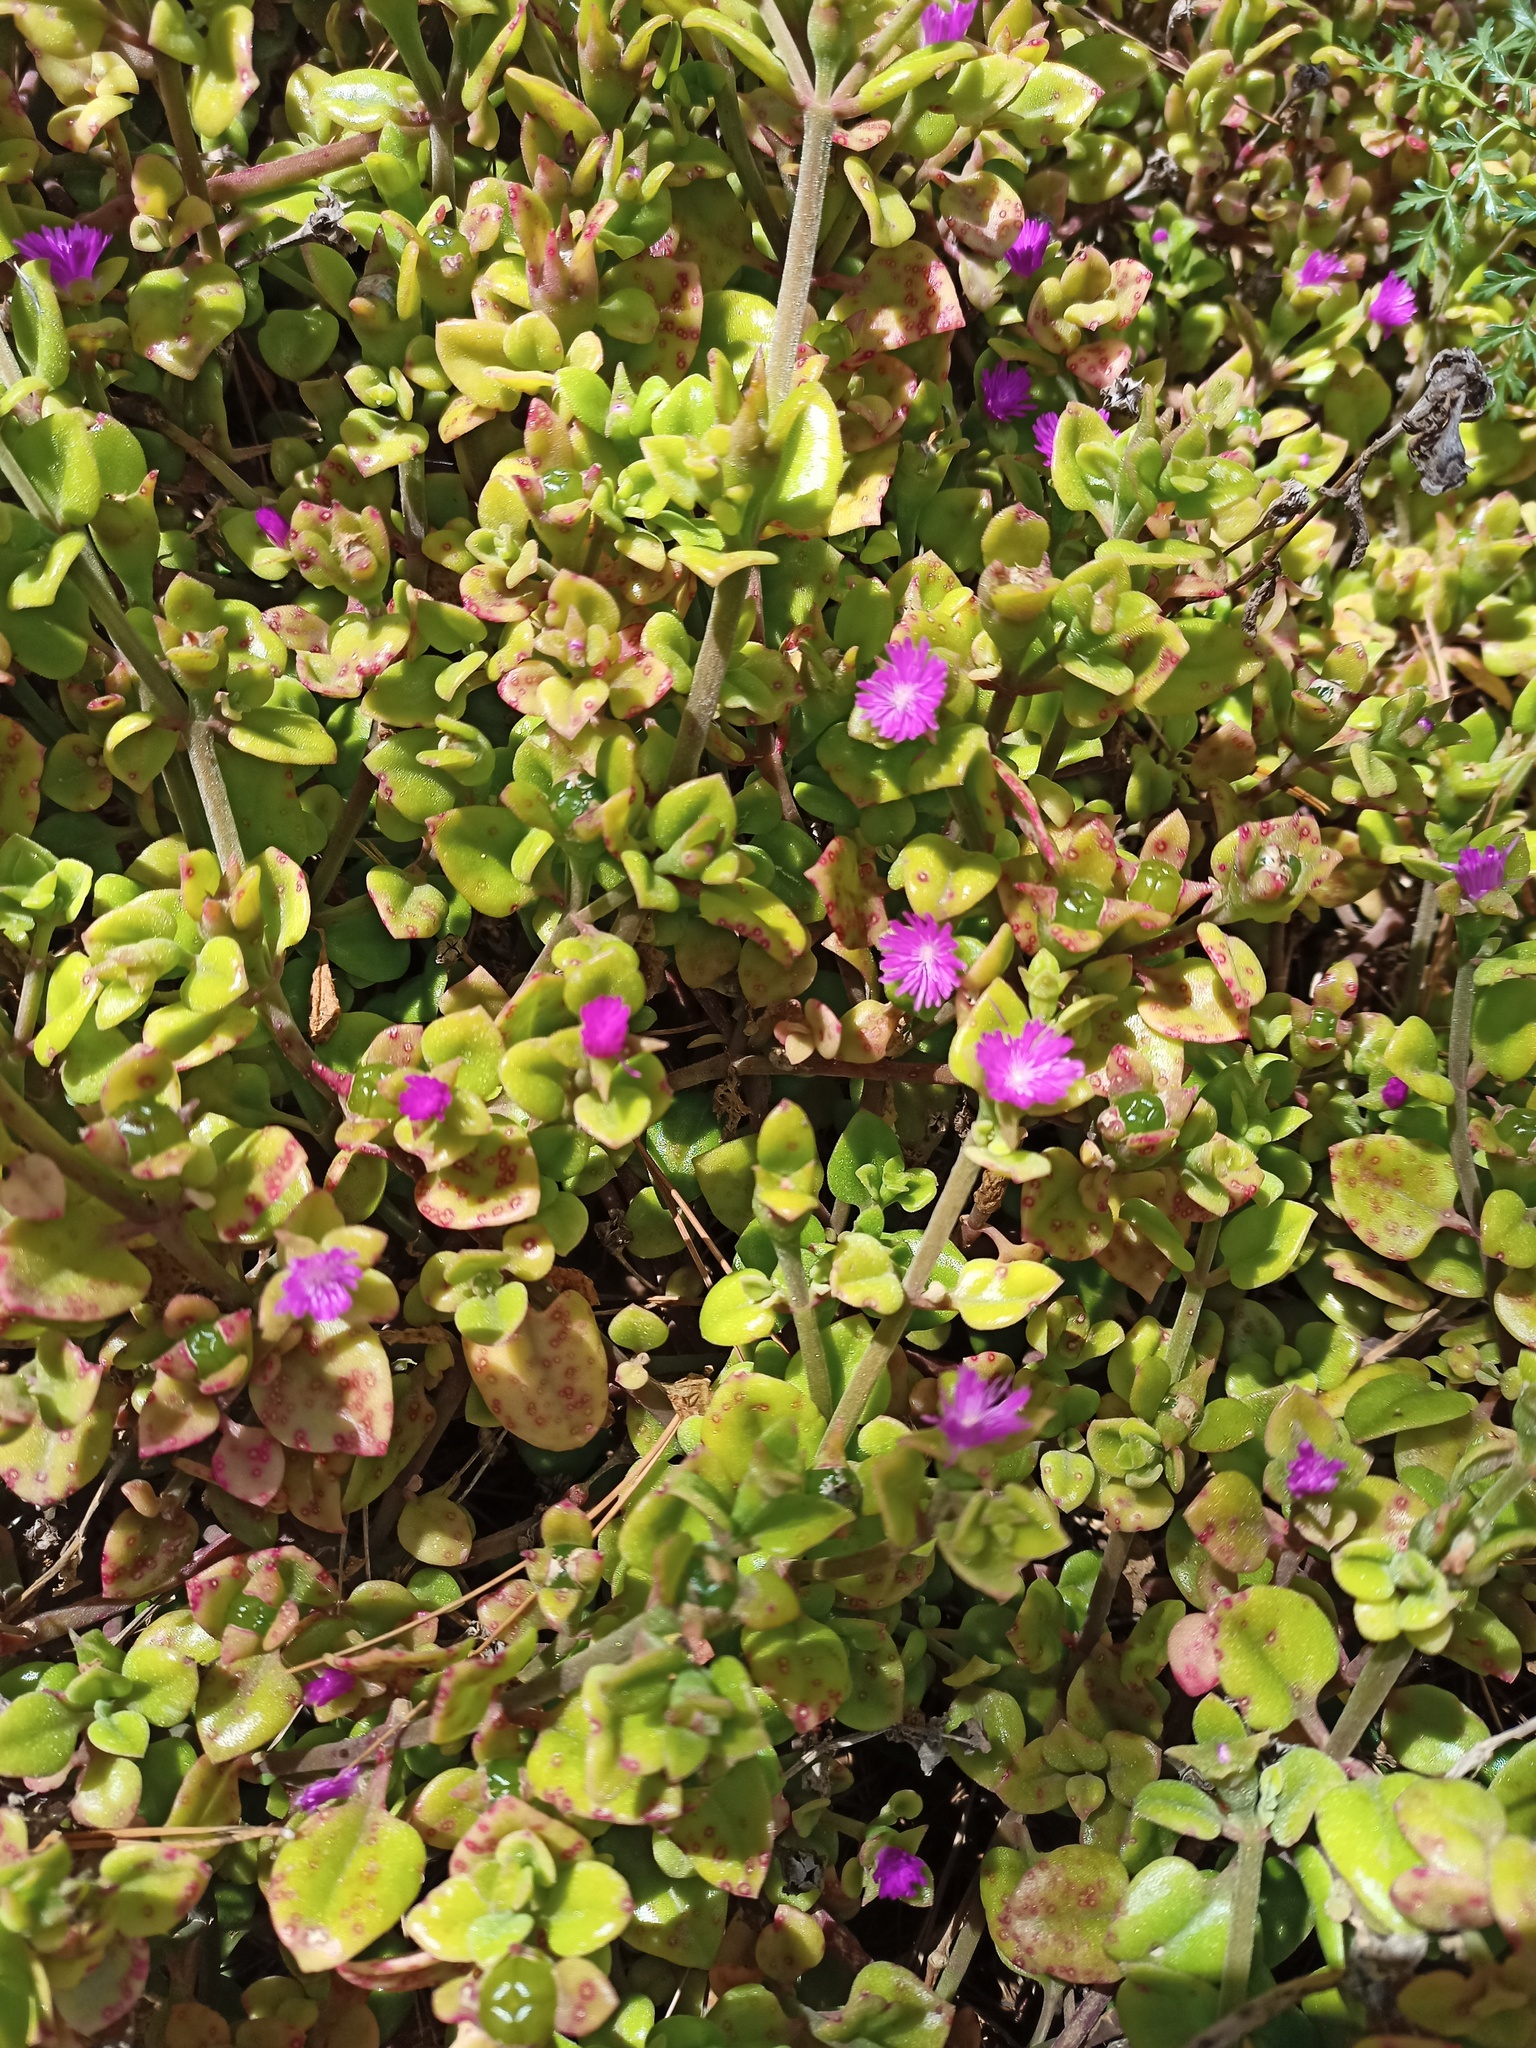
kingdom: Plantae
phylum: Tracheophyta
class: Magnoliopsida
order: Caryophyllales
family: Aizoaceae
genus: Mesembryanthemum
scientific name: Mesembryanthemum cordifolium
